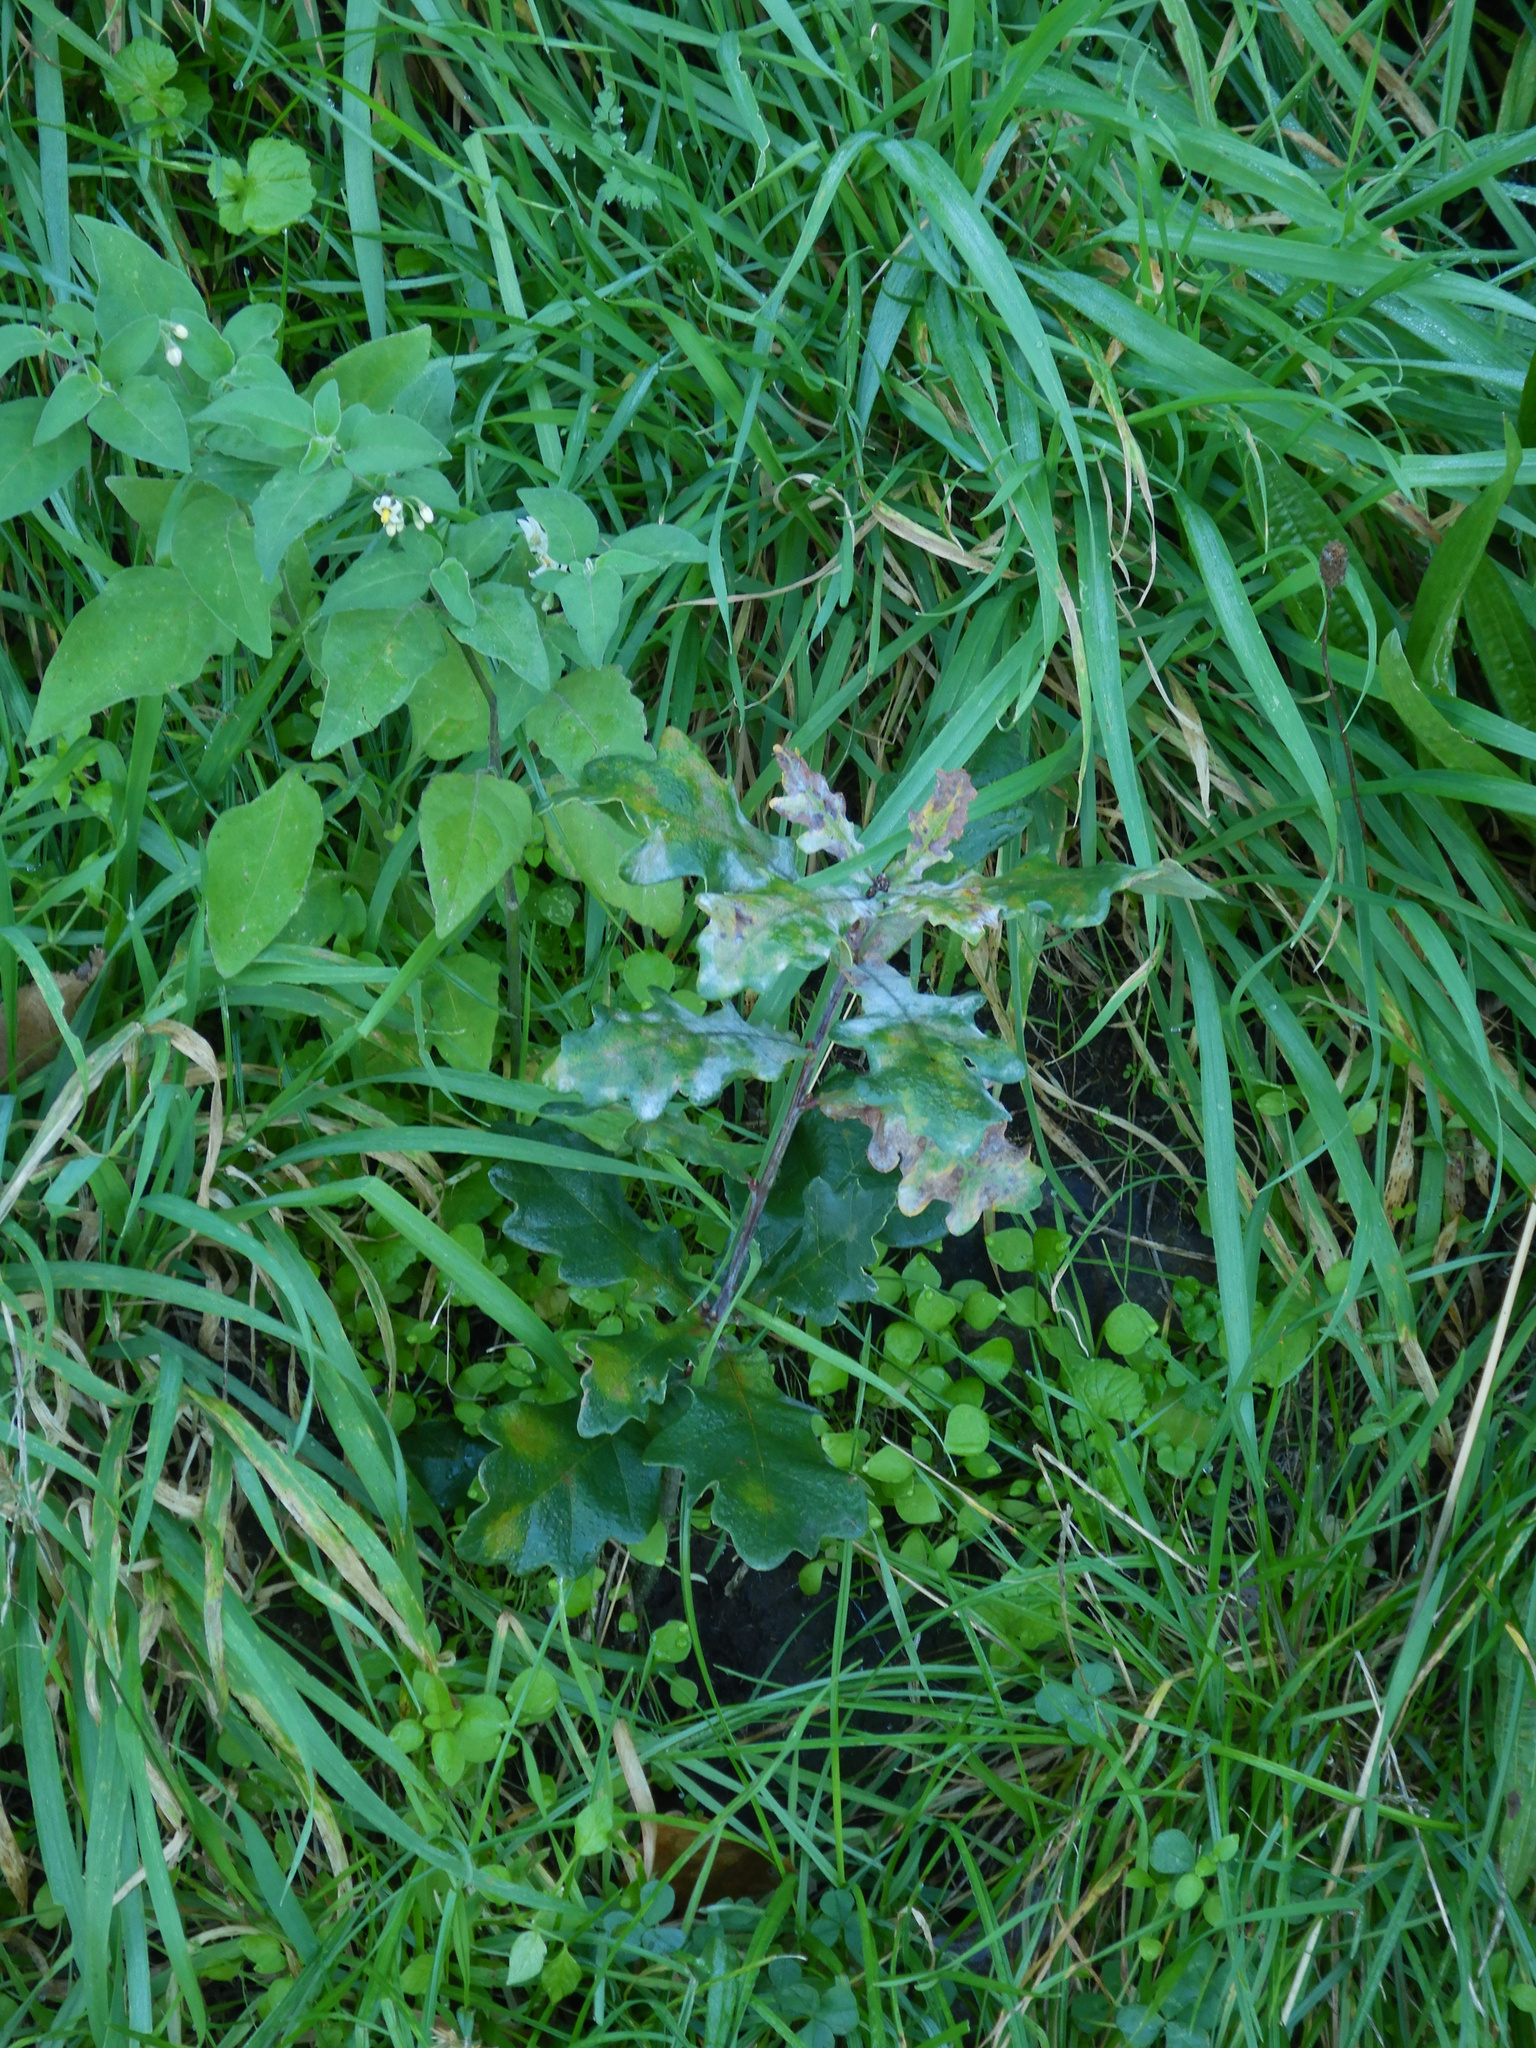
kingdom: Plantae
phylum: Tracheophyta
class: Magnoliopsida
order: Solanales
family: Solanaceae
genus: Solanum
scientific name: Solanum chenopodioides
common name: Tall nightshade
